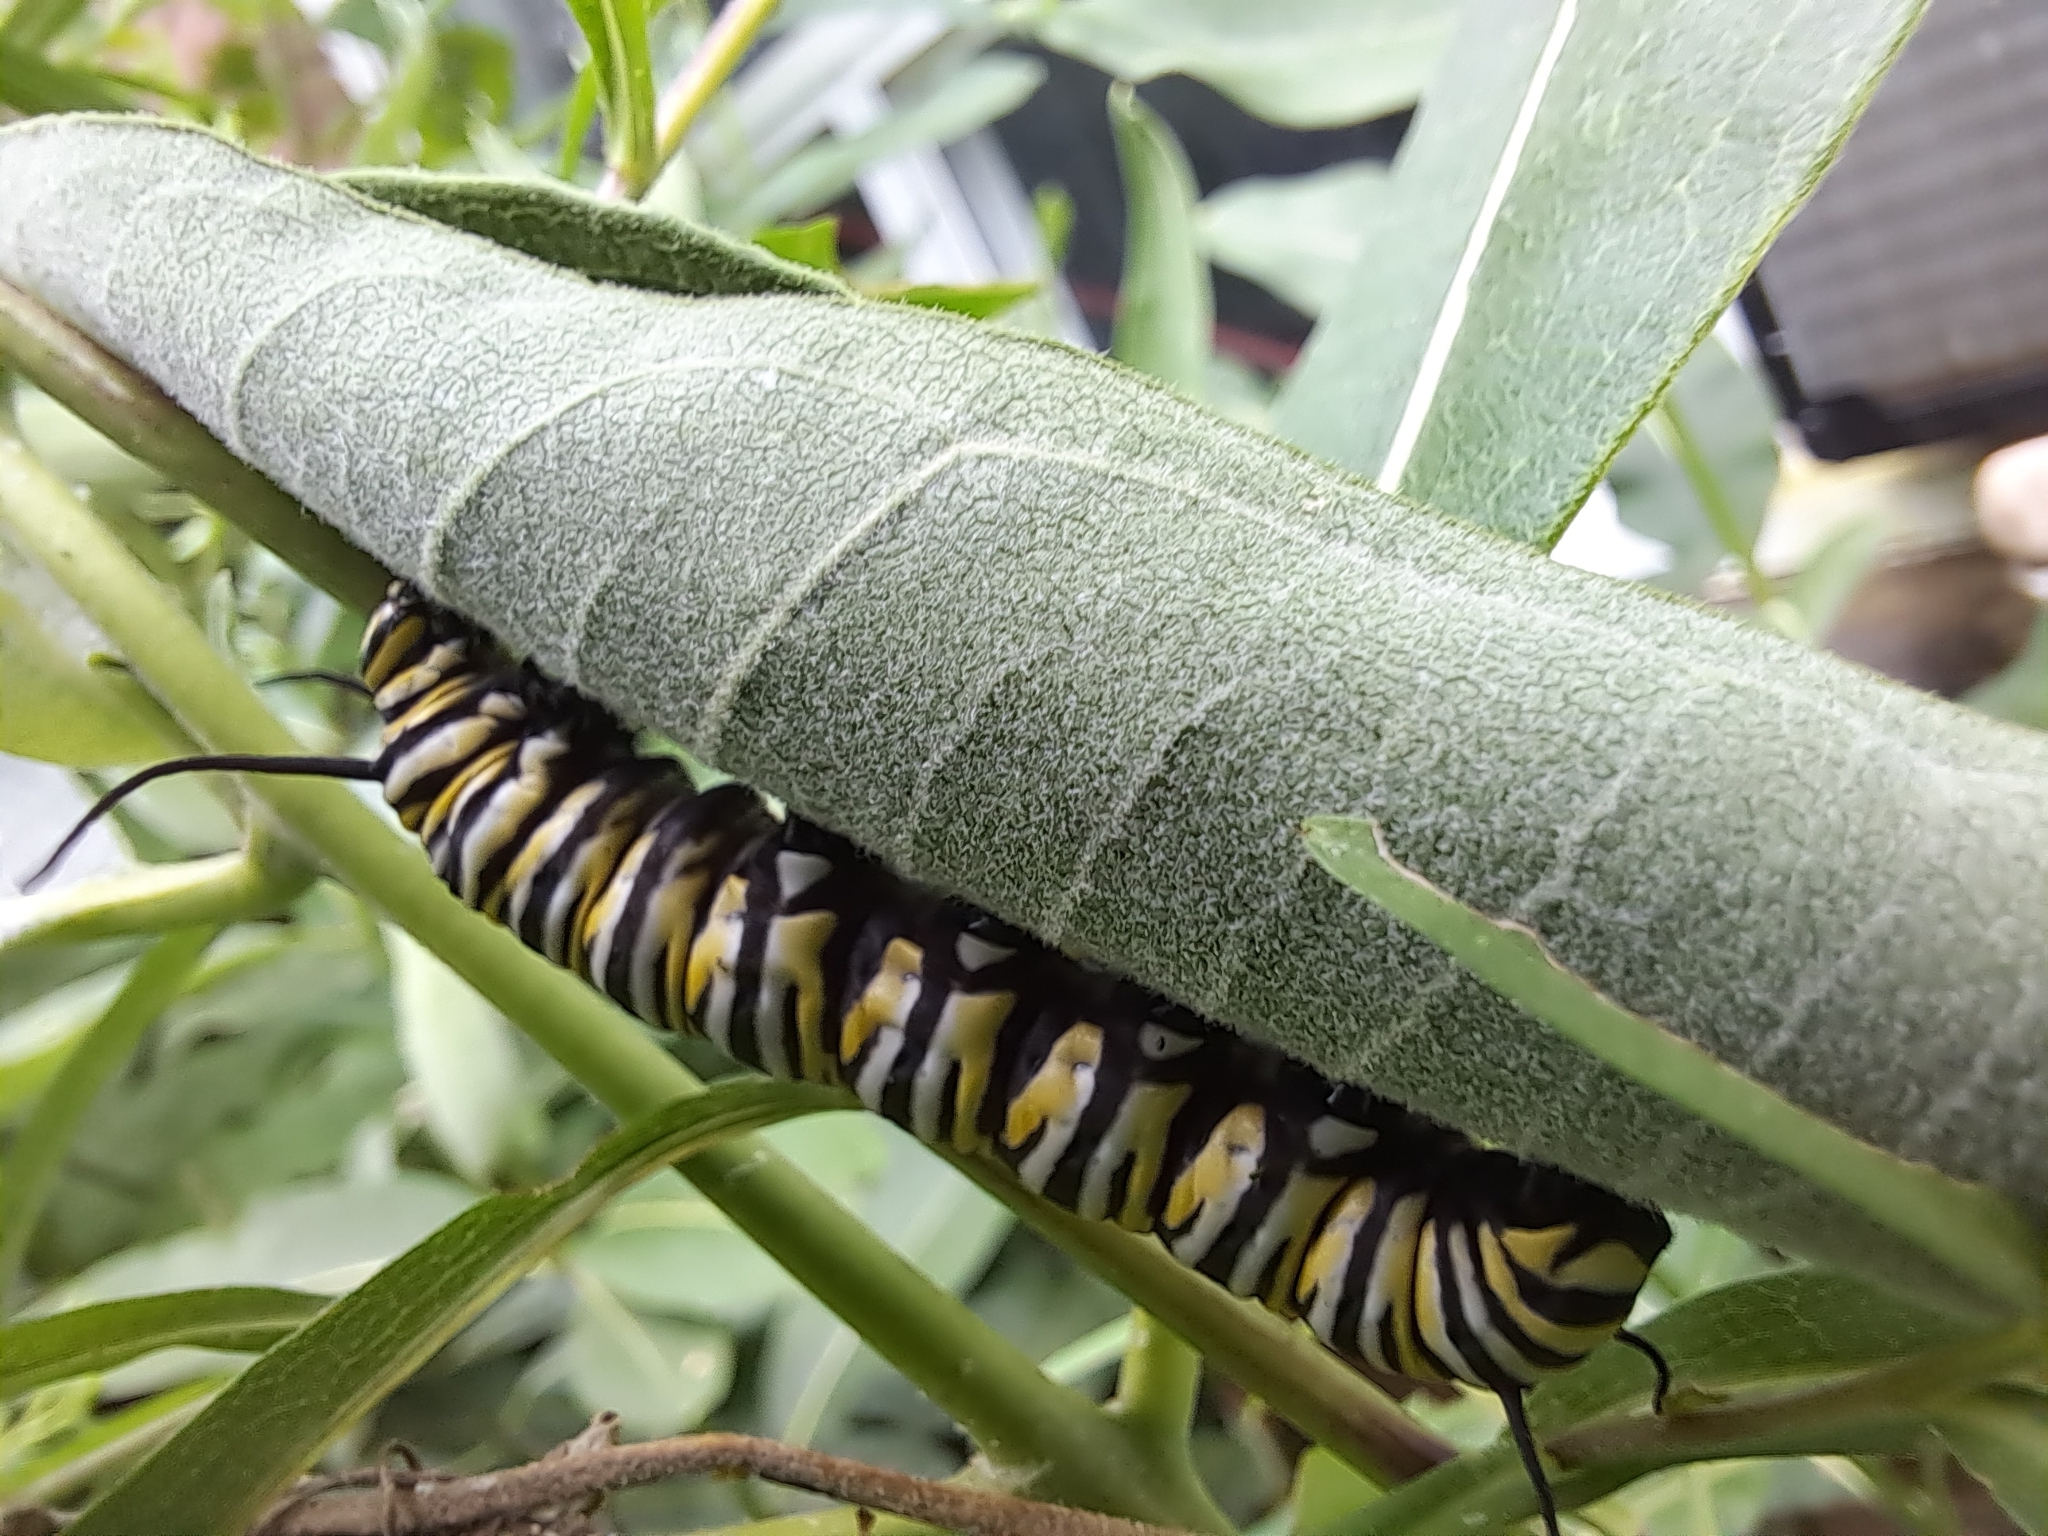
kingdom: Animalia
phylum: Arthropoda
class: Insecta
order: Lepidoptera
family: Nymphalidae
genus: Danaus
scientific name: Danaus plexippus
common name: Monarch
